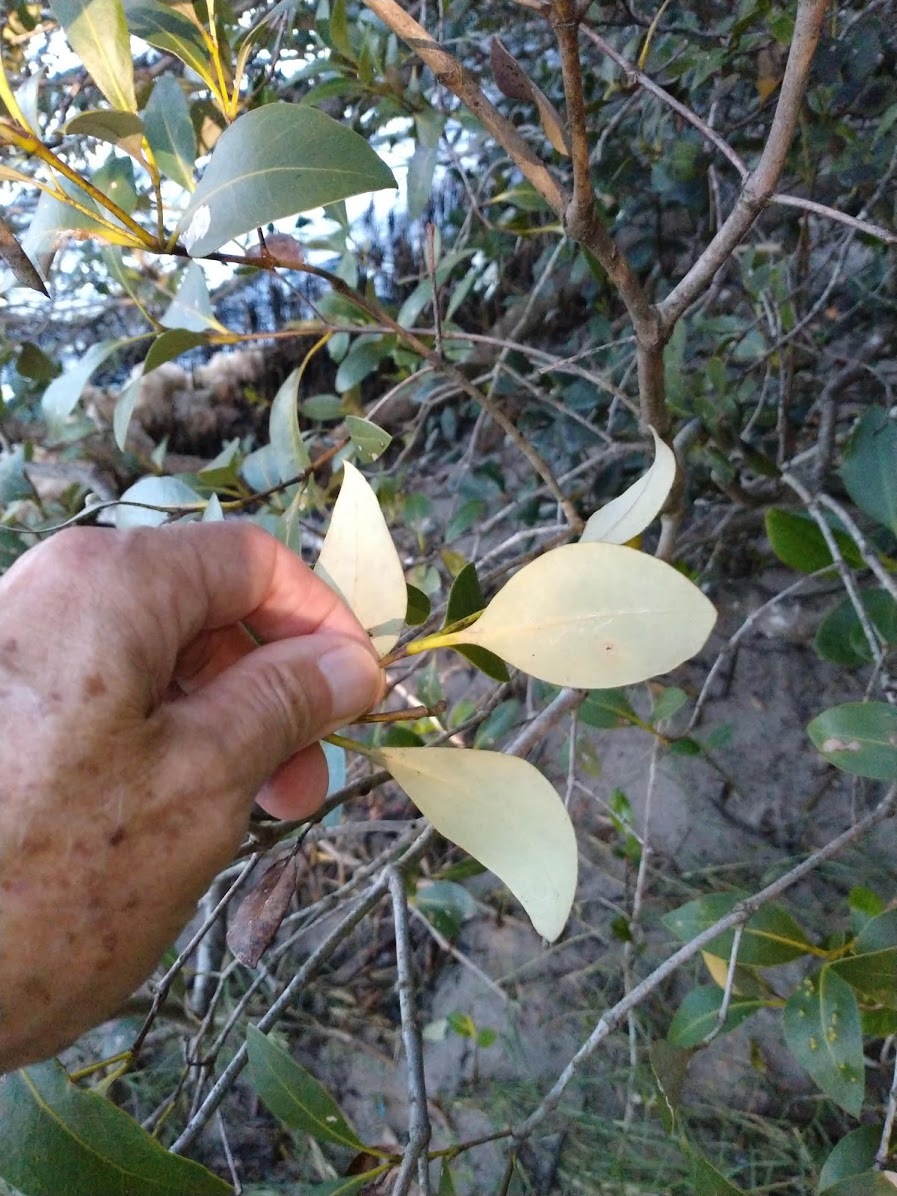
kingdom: Plantae
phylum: Tracheophyta
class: Magnoliopsida
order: Lamiales
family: Acanthaceae
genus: Avicennia
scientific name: Avicennia marina
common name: Gray mangrove
